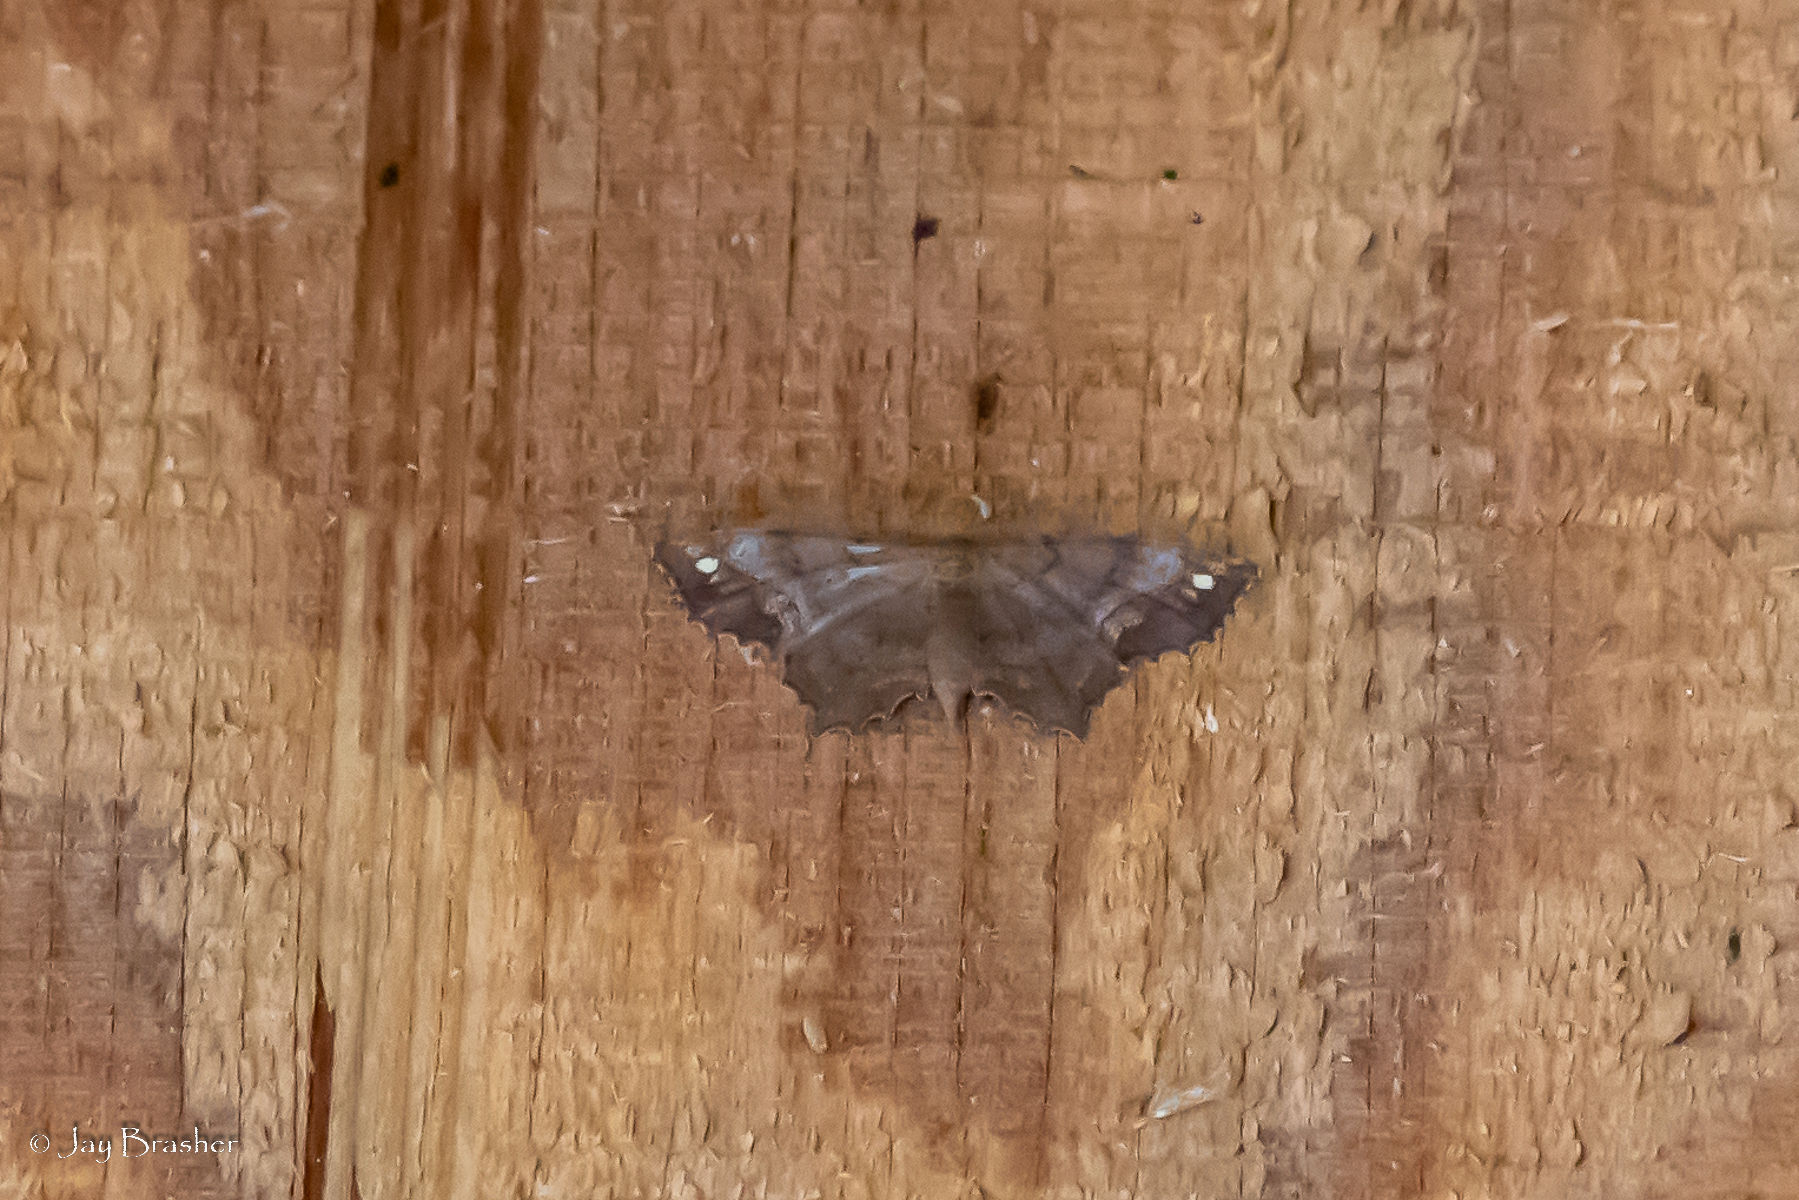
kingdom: Animalia
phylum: Arthropoda
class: Insecta
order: Lepidoptera
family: Geometridae
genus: Hypagyrtis
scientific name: Hypagyrtis esther
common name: Esther moth
